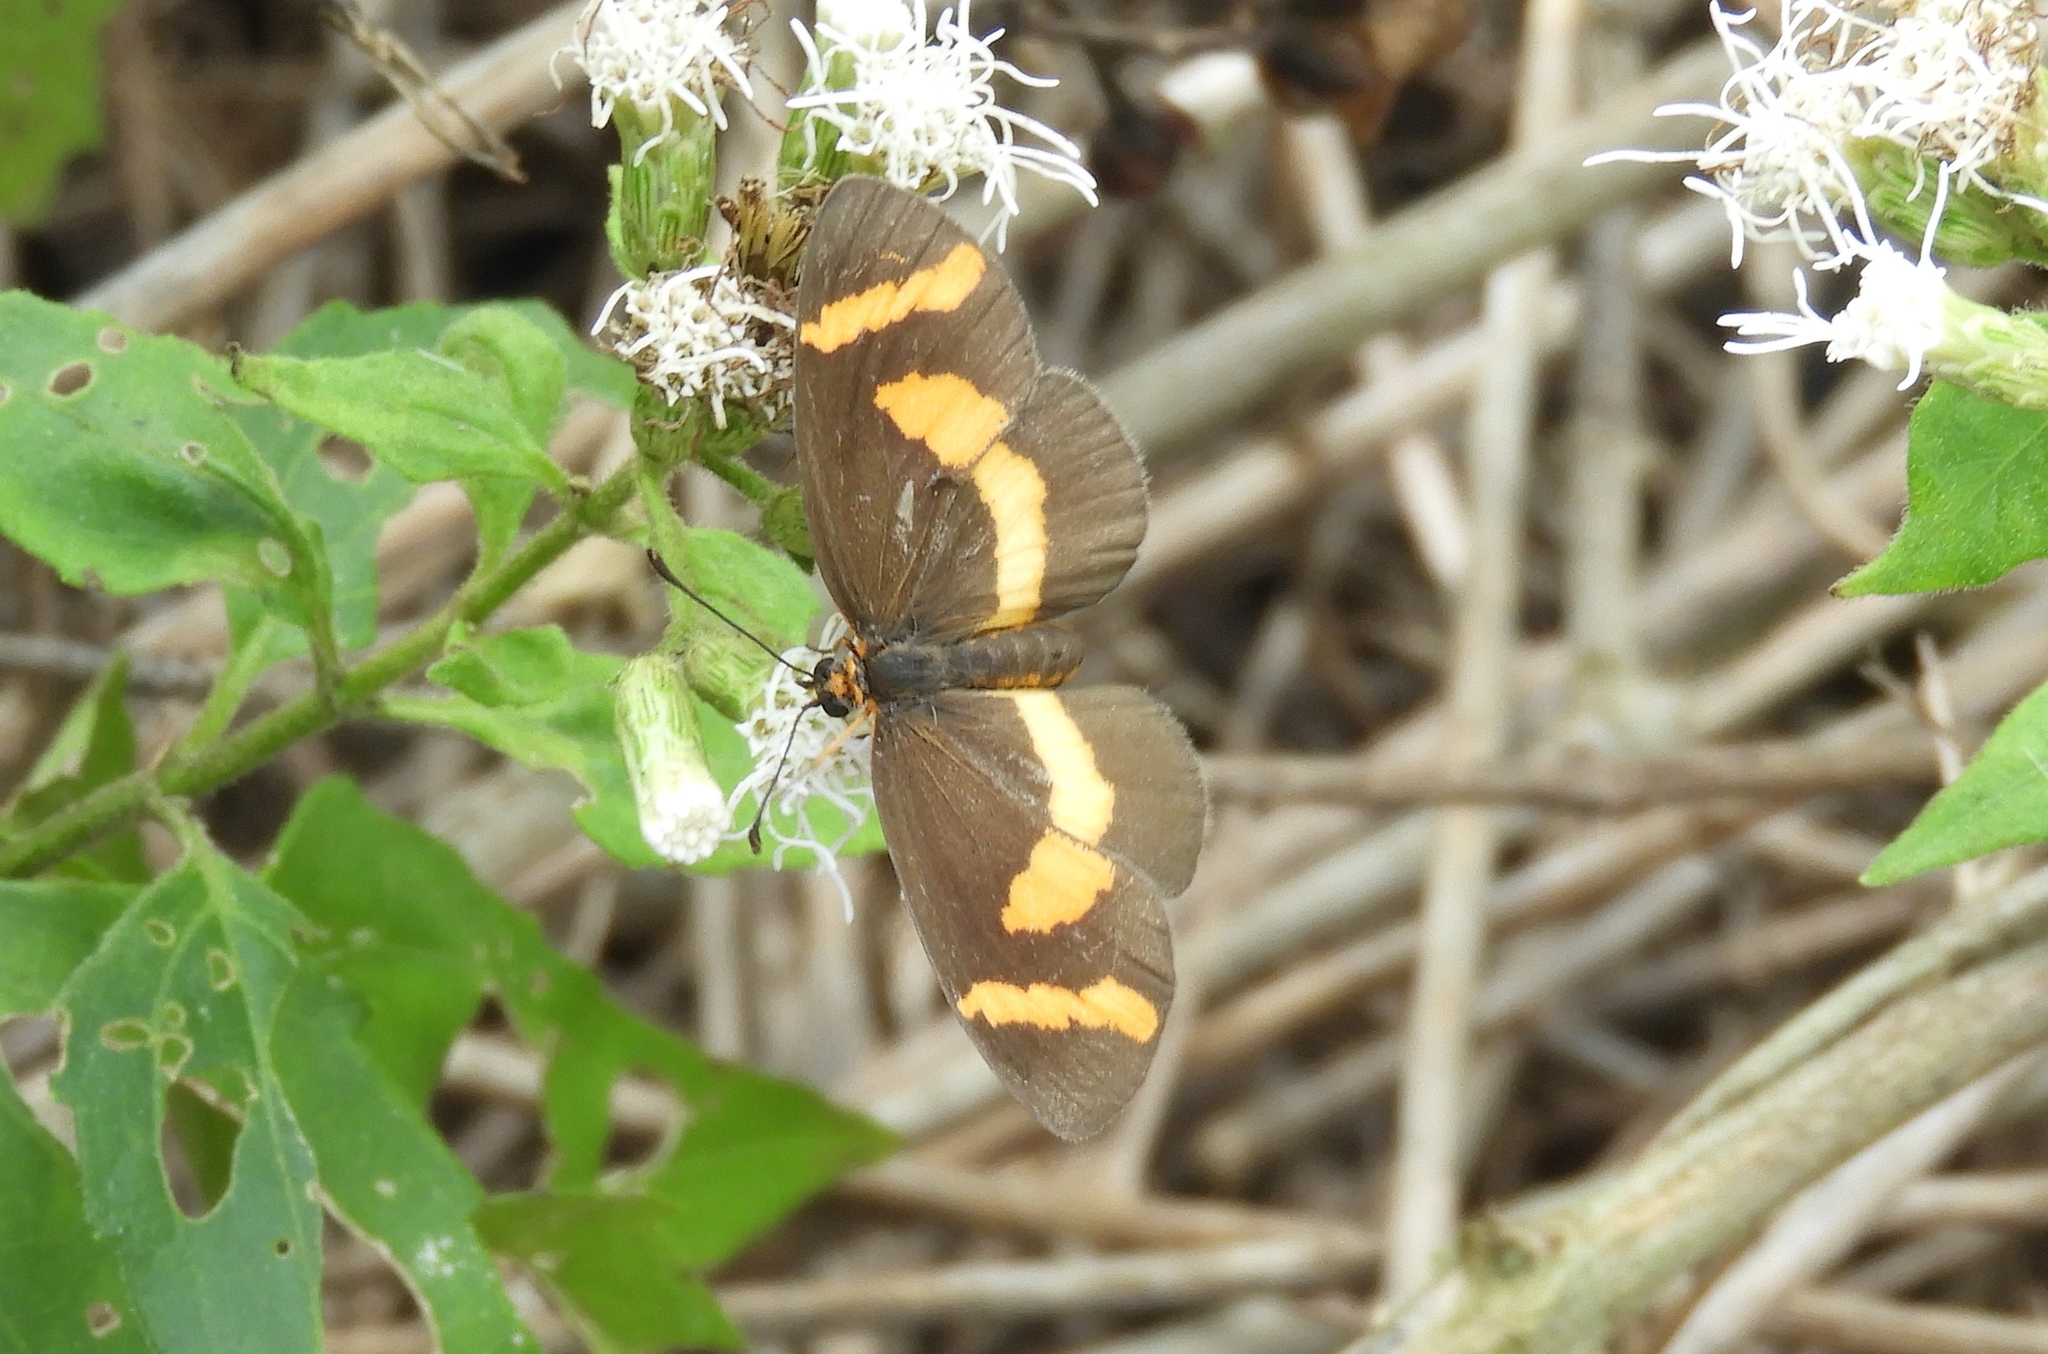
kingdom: Animalia
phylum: Arthropoda
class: Insecta
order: Lepidoptera
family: Nymphalidae
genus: Microtia
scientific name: Microtia elva
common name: Elf
